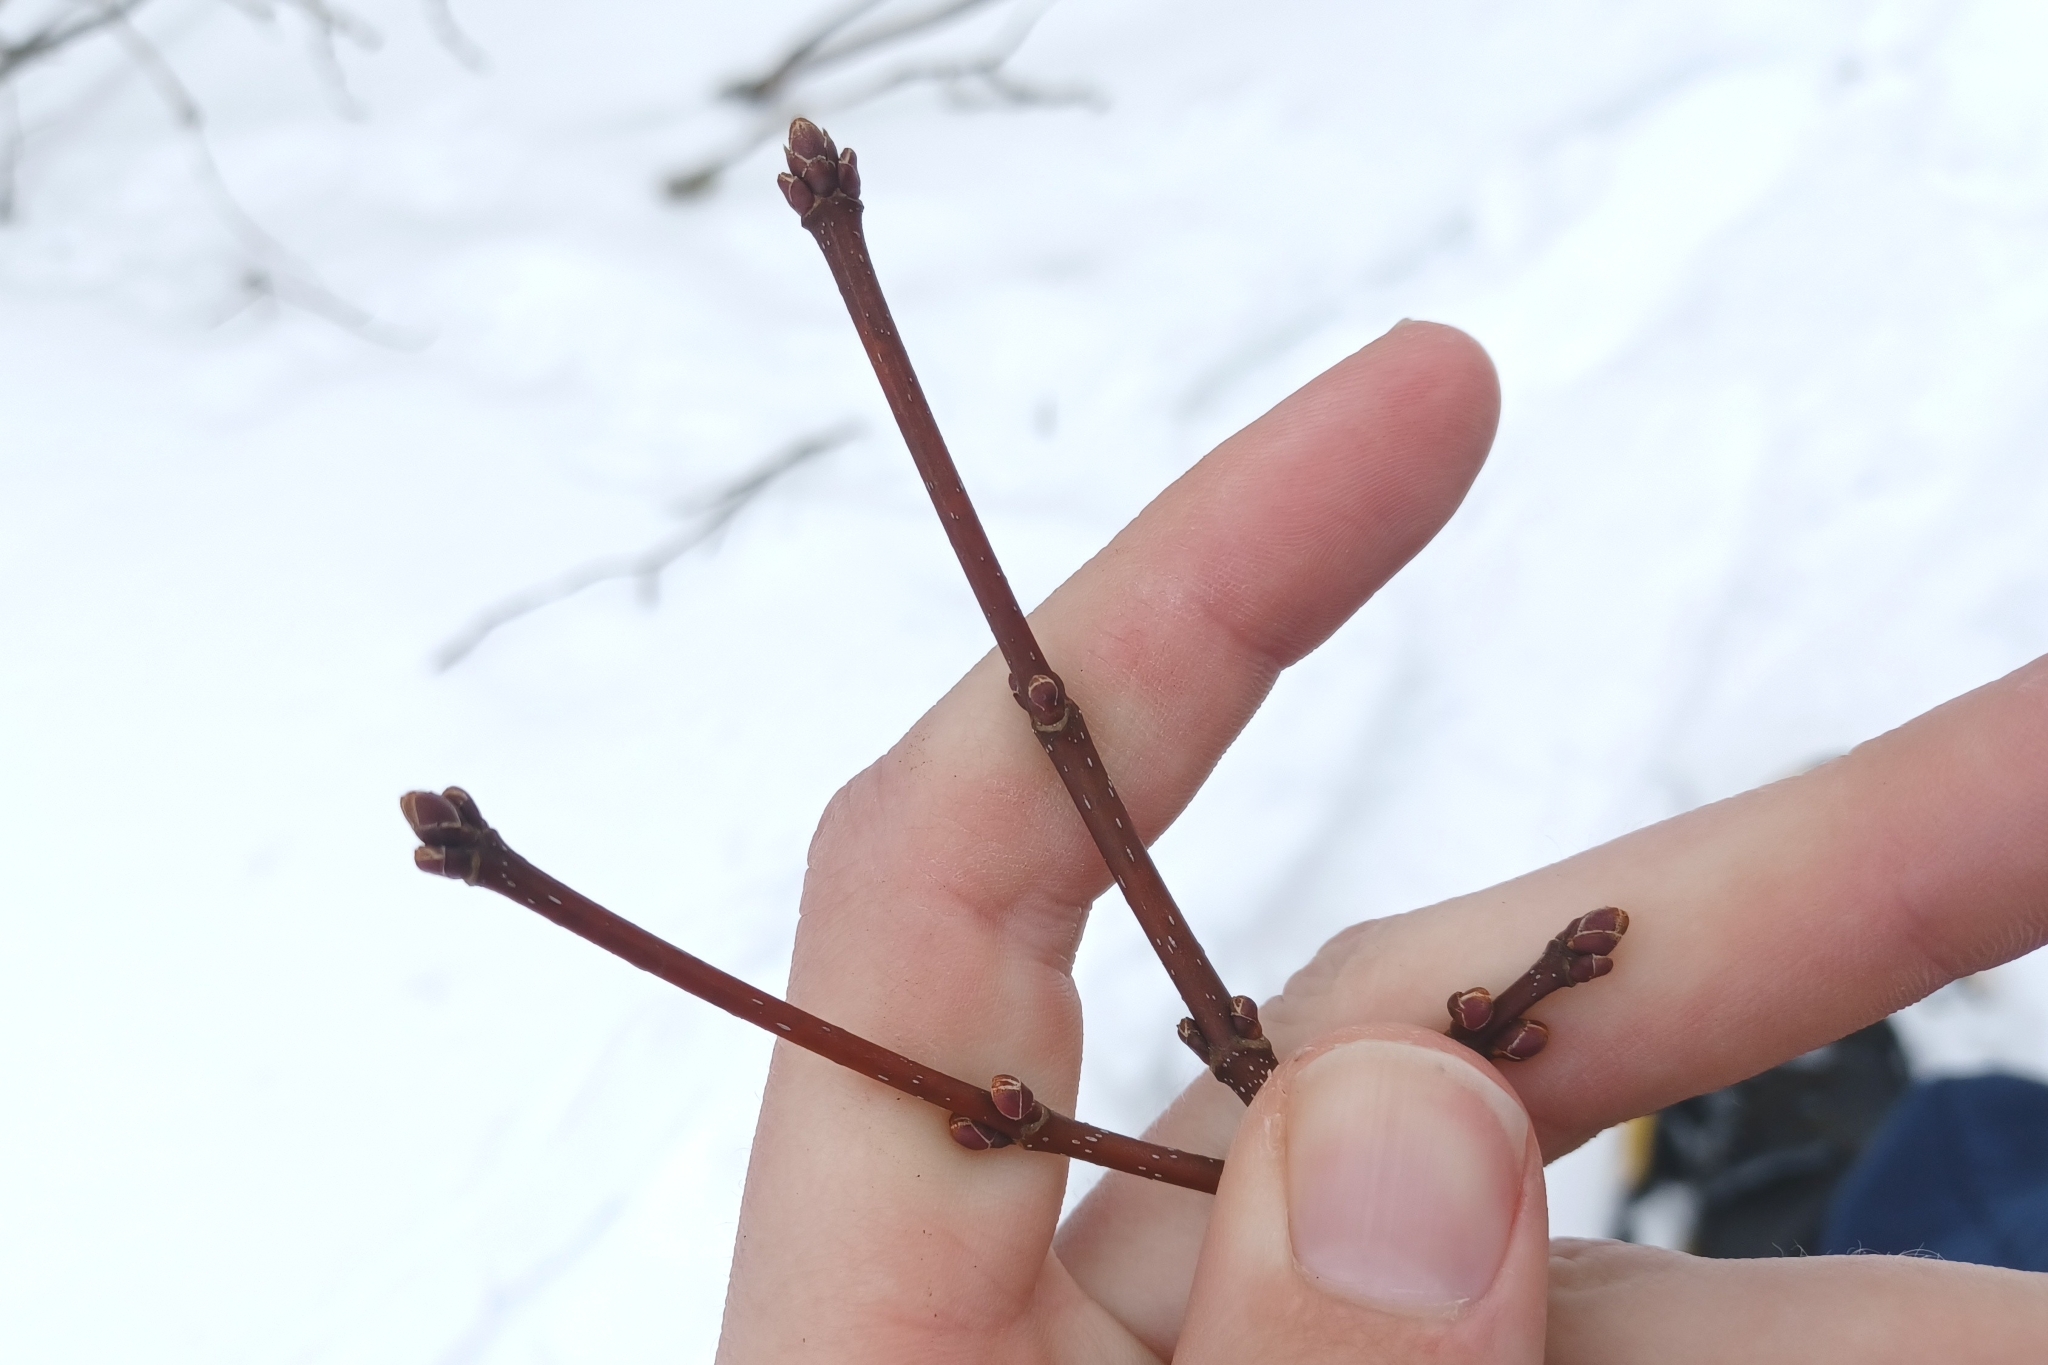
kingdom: Plantae
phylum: Tracheophyta
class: Magnoliopsida
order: Sapindales
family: Sapindaceae
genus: Acer
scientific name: Acer rubrum
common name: Red maple
